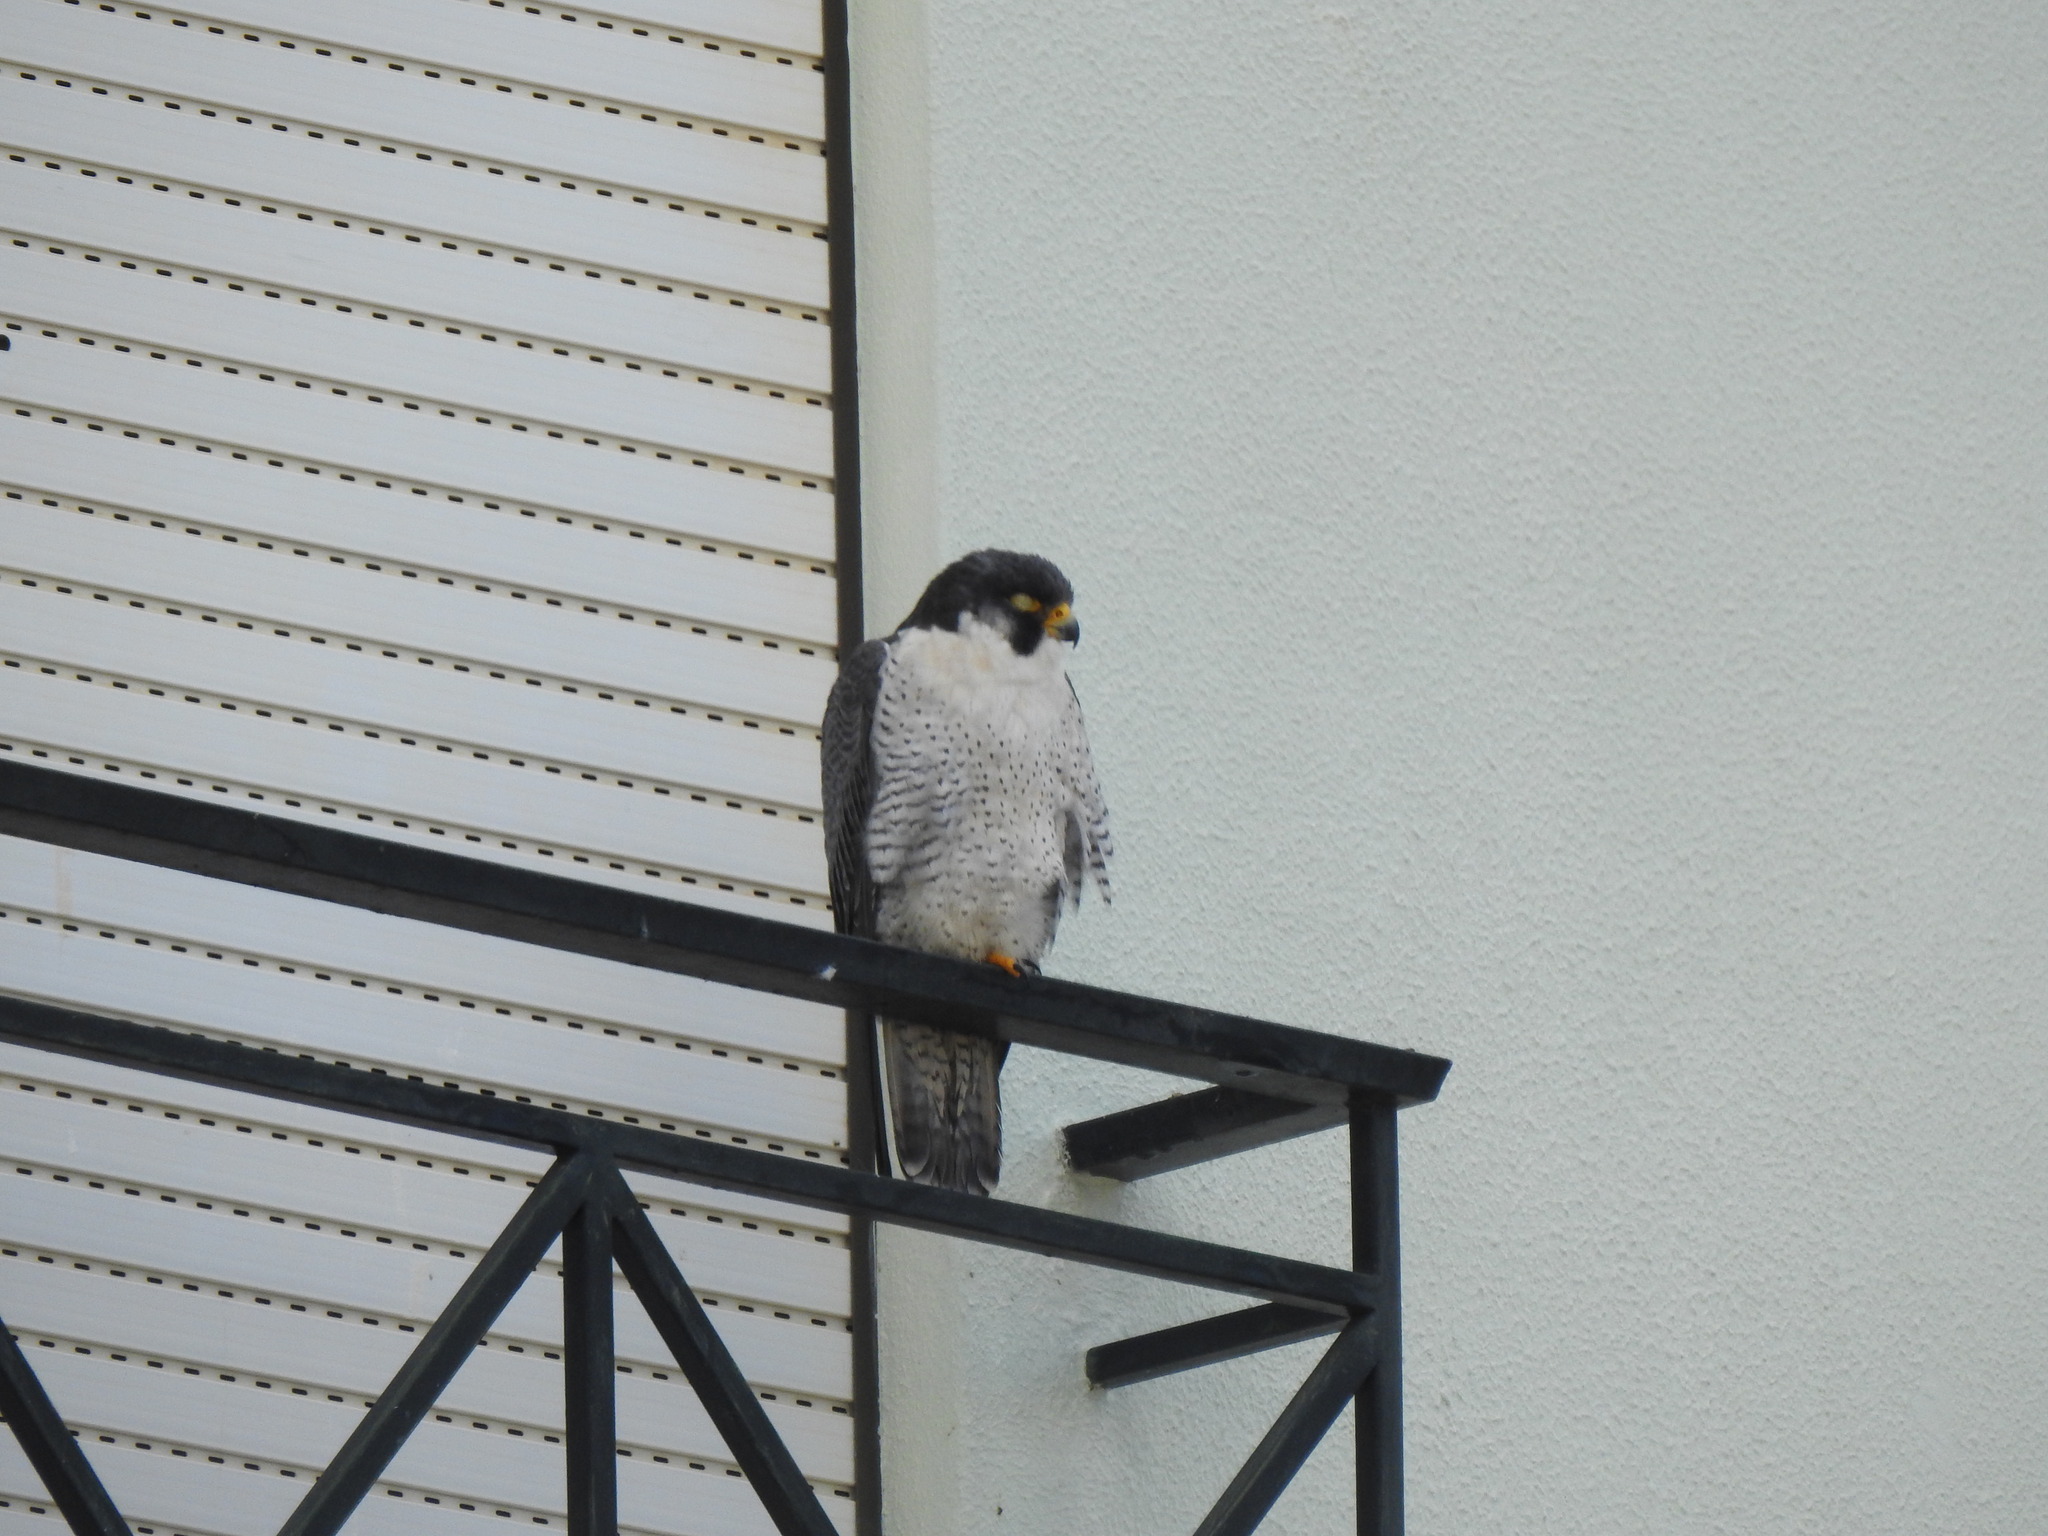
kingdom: Animalia
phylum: Chordata
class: Aves
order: Falconiformes
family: Falconidae
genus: Falco
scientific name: Falco peregrinus
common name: Peregrine falcon
